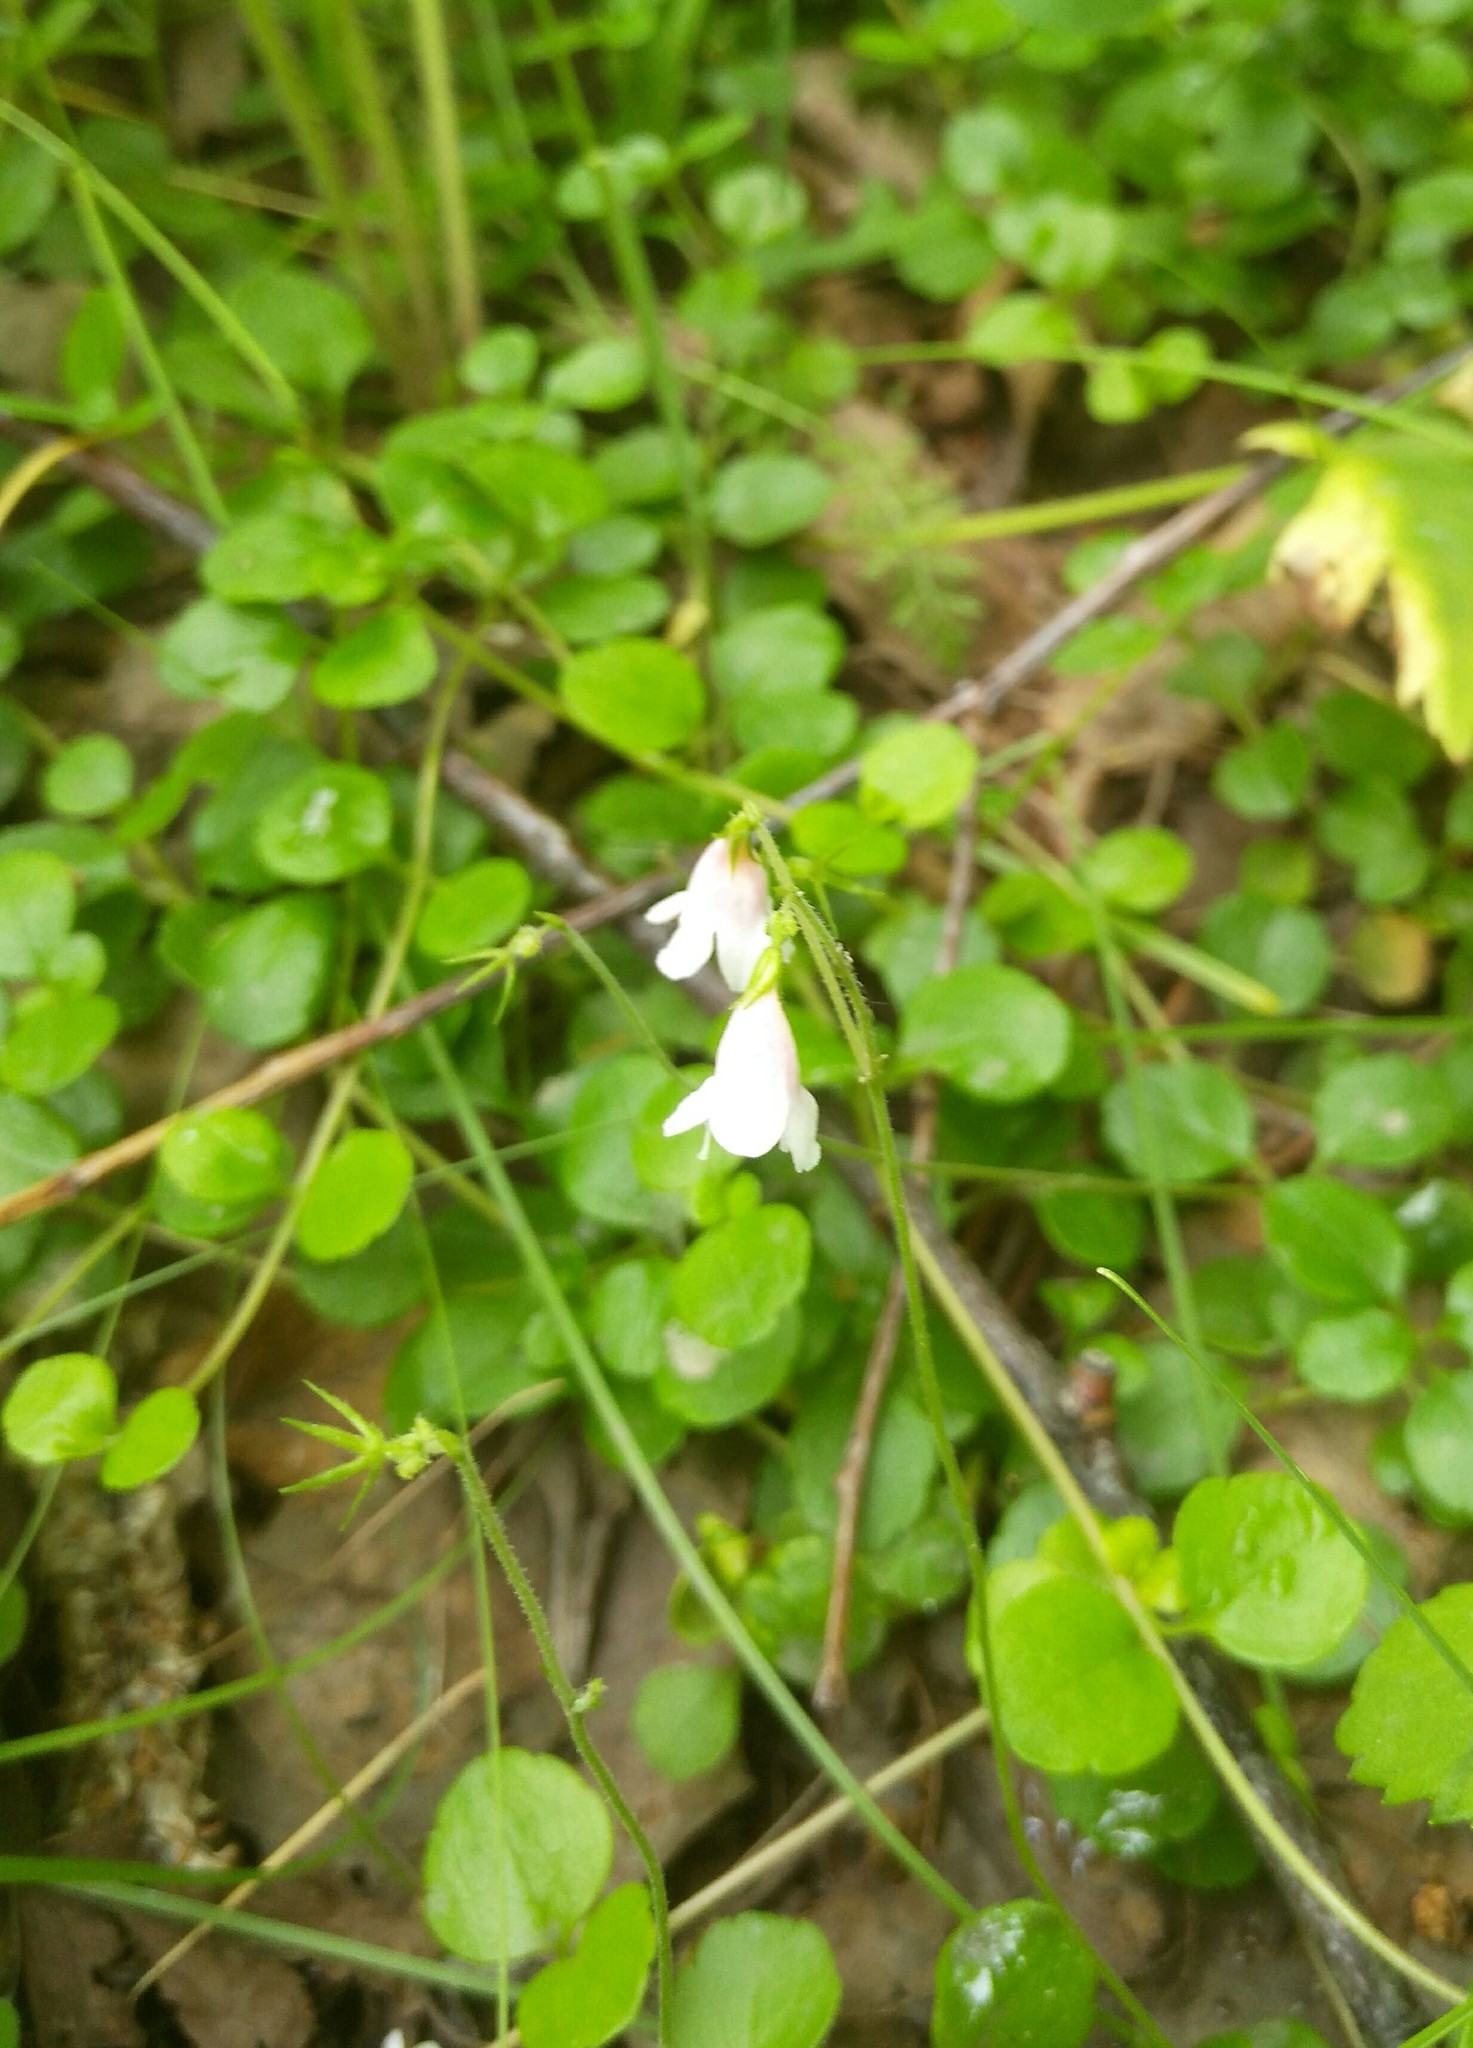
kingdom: Plantae
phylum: Tracheophyta
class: Magnoliopsida
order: Dipsacales
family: Caprifoliaceae
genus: Linnaea
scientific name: Linnaea borealis
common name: Twinflower
